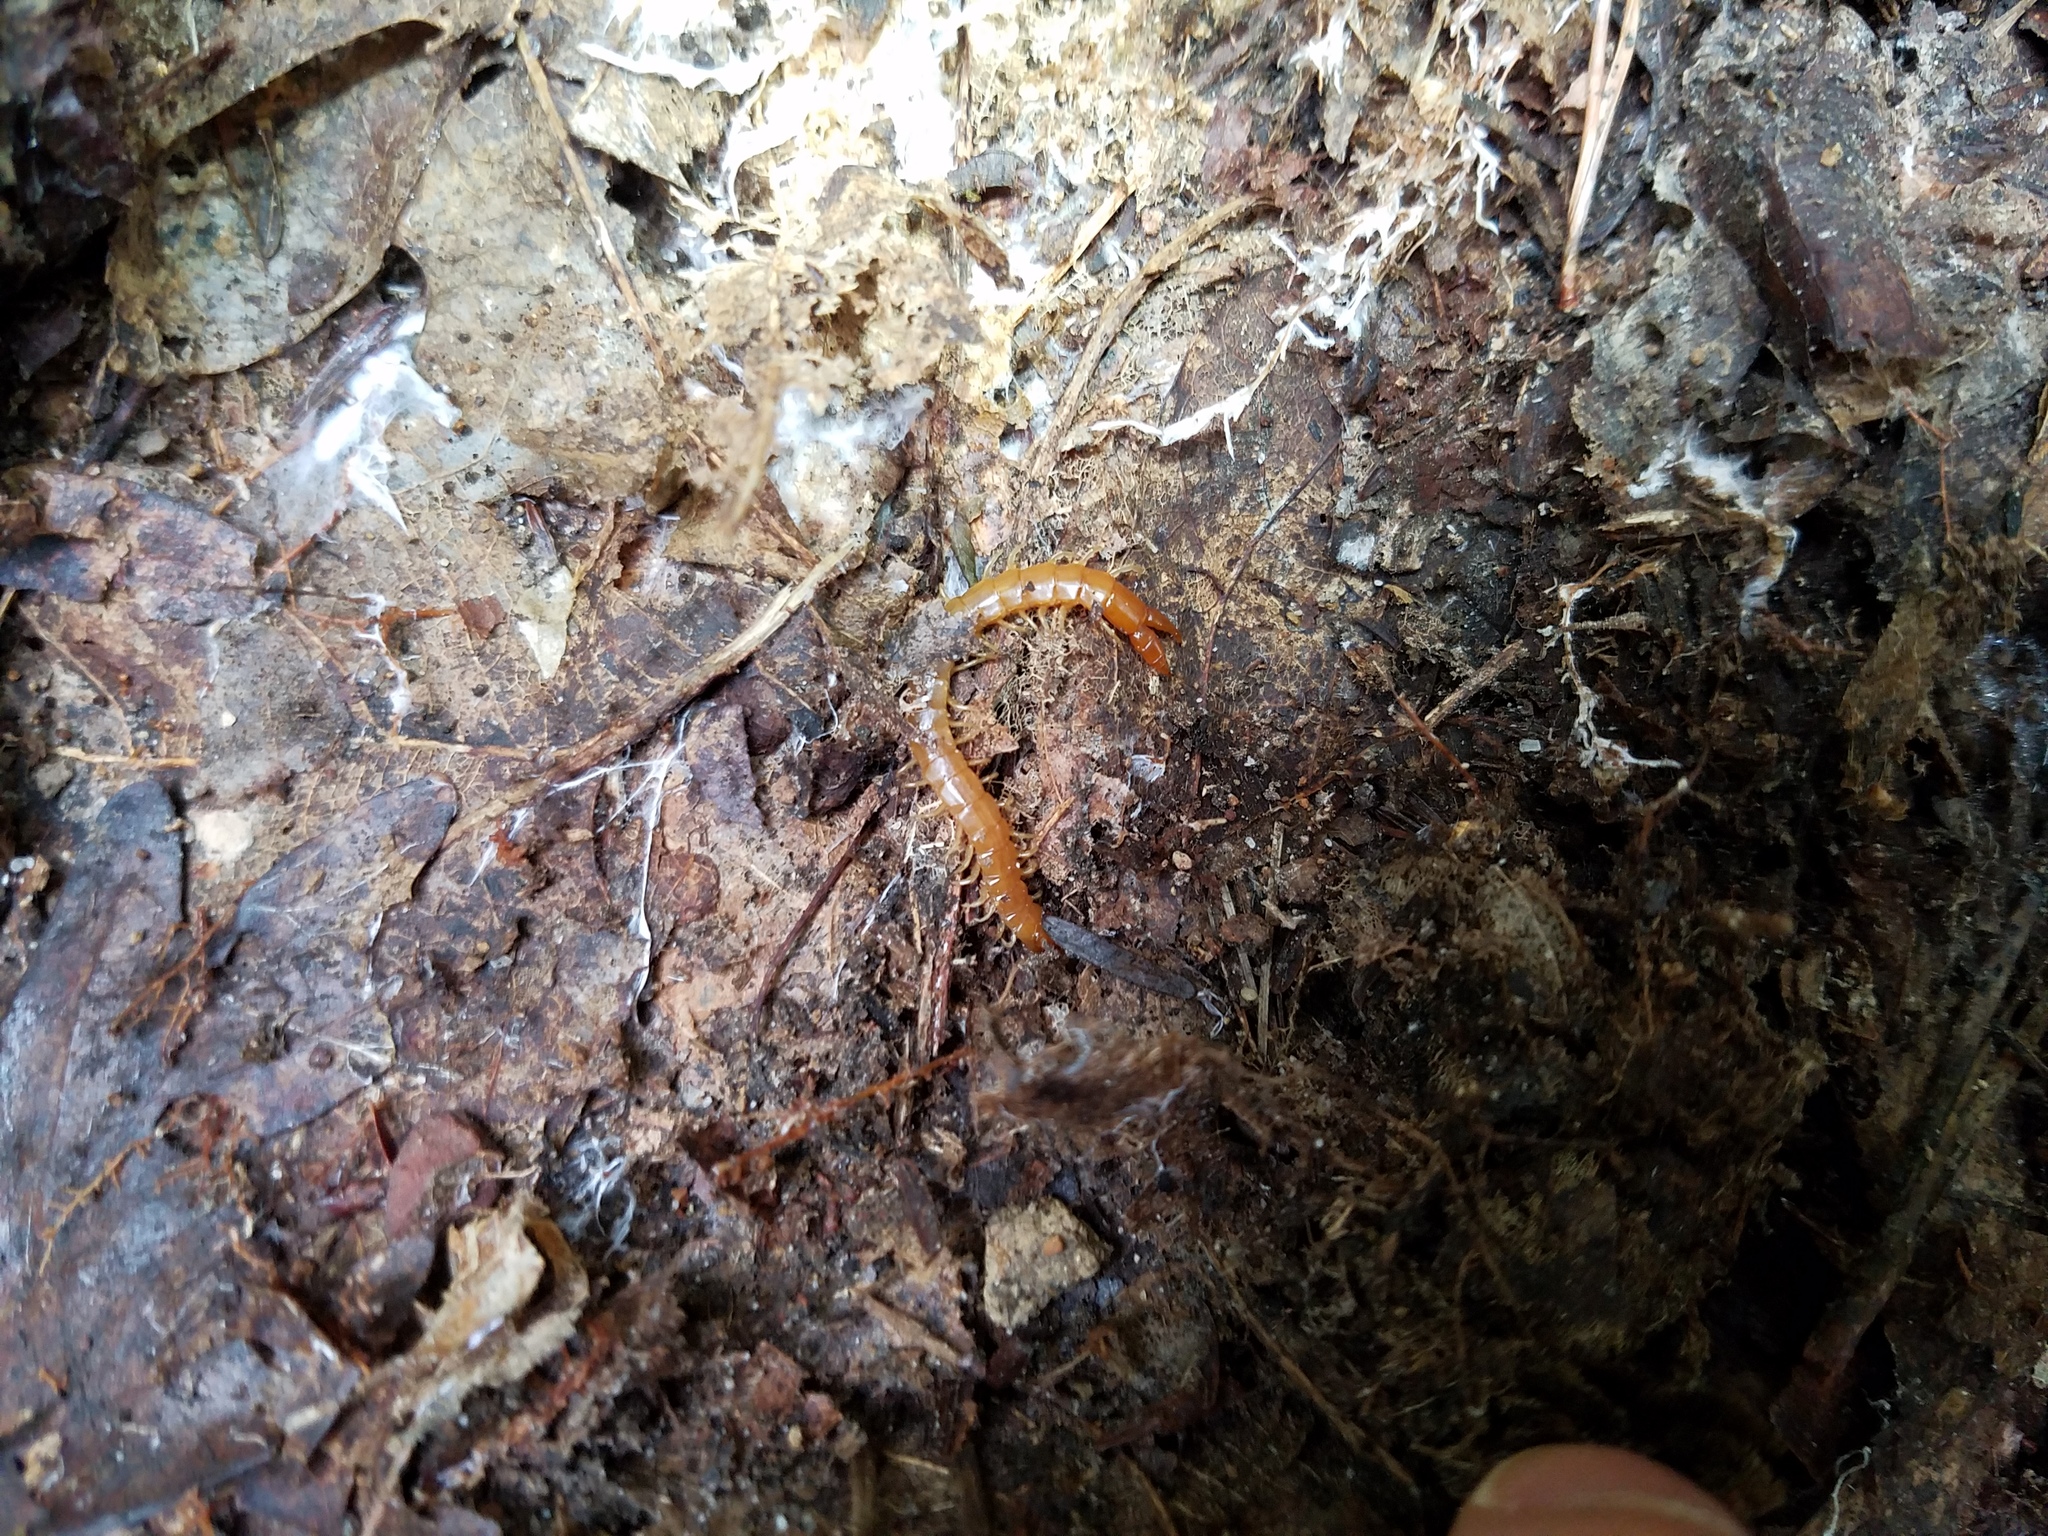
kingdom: Animalia
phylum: Arthropoda
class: Chilopoda
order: Scolopendromorpha
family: Cryptopidae
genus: Theatops
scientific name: Theatops posticus
